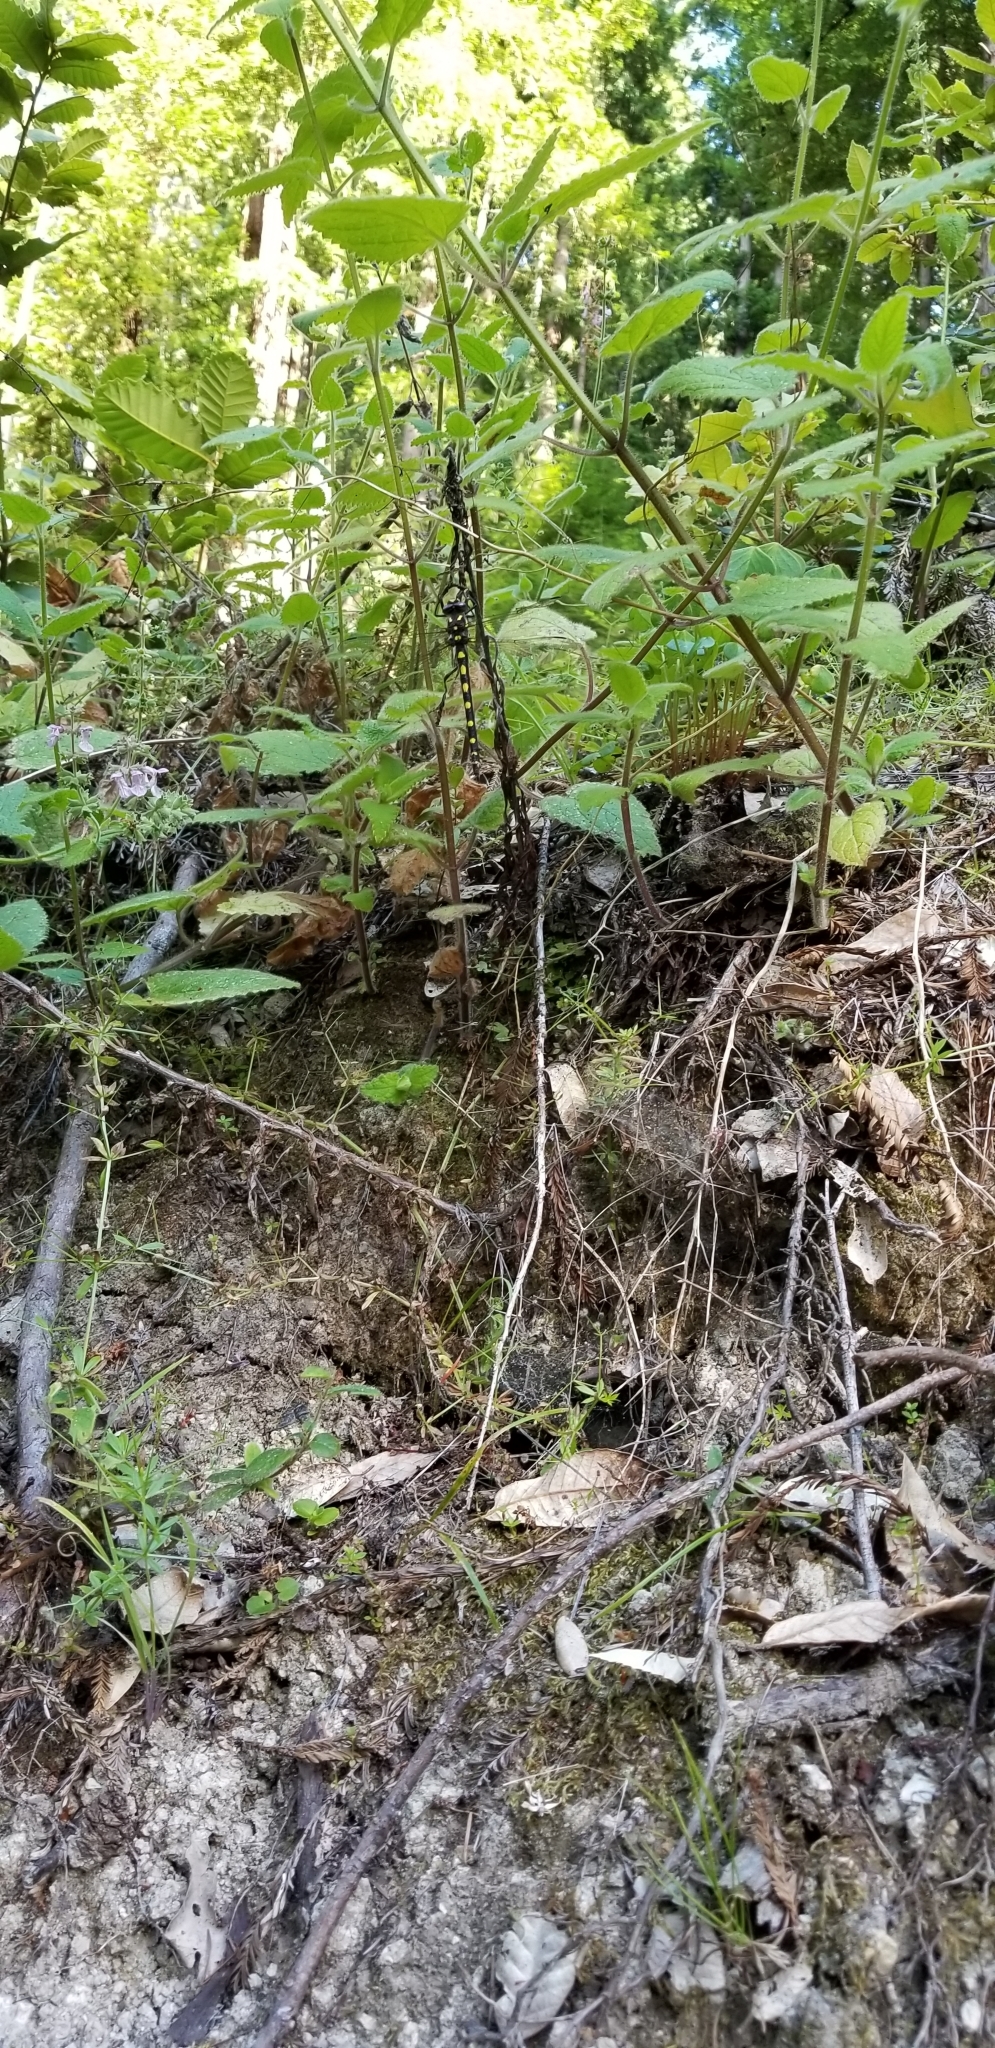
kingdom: Animalia
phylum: Arthropoda
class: Insecta
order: Odonata
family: Cordulegastridae
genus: Cordulegaster
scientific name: Cordulegaster dorsalis
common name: Pacific spiketail
